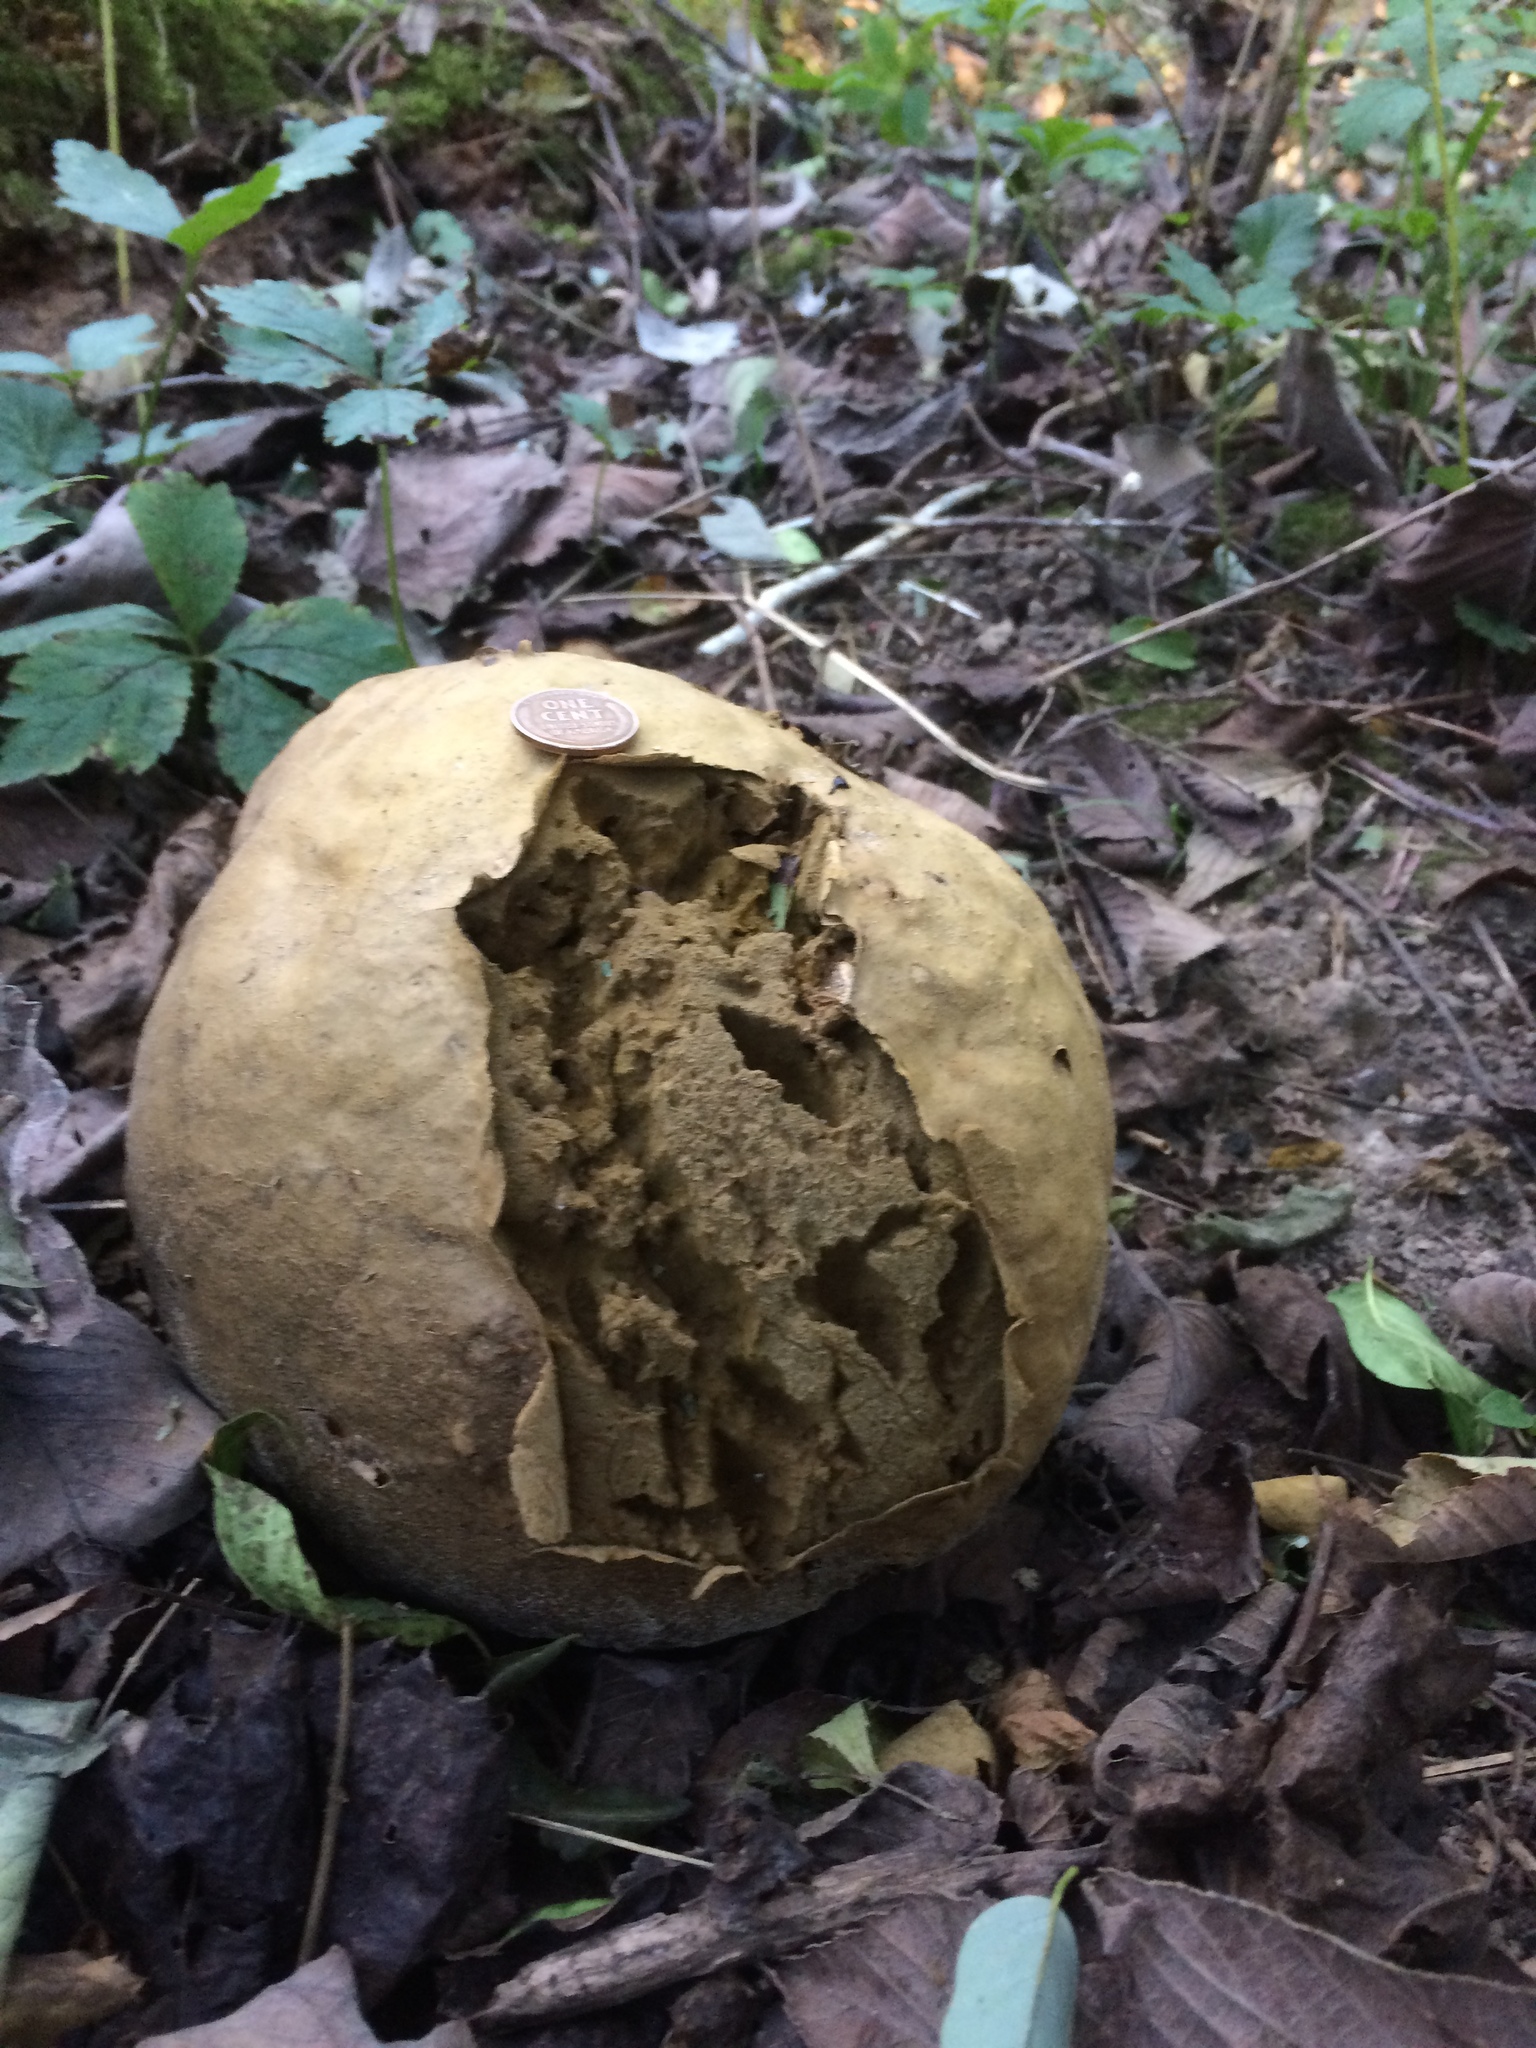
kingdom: Fungi
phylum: Basidiomycota
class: Agaricomycetes
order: Agaricales
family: Lycoperdaceae
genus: Calvatia
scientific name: Calvatia gigantea
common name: Giant puffball
